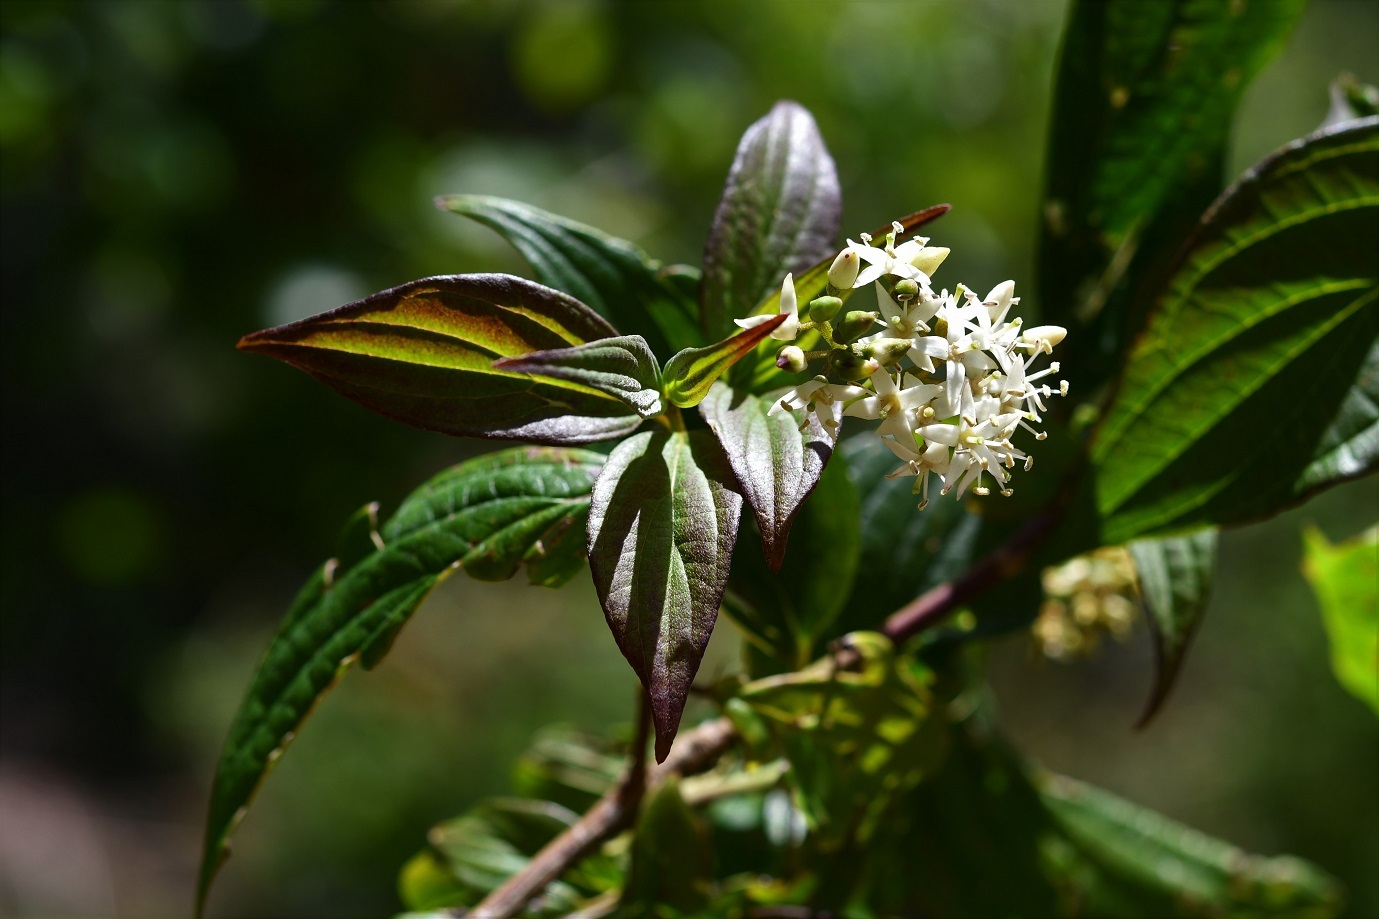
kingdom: Plantae
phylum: Tracheophyta
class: Magnoliopsida
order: Cornales
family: Cornaceae
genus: Cornus
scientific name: Cornus excelsa
